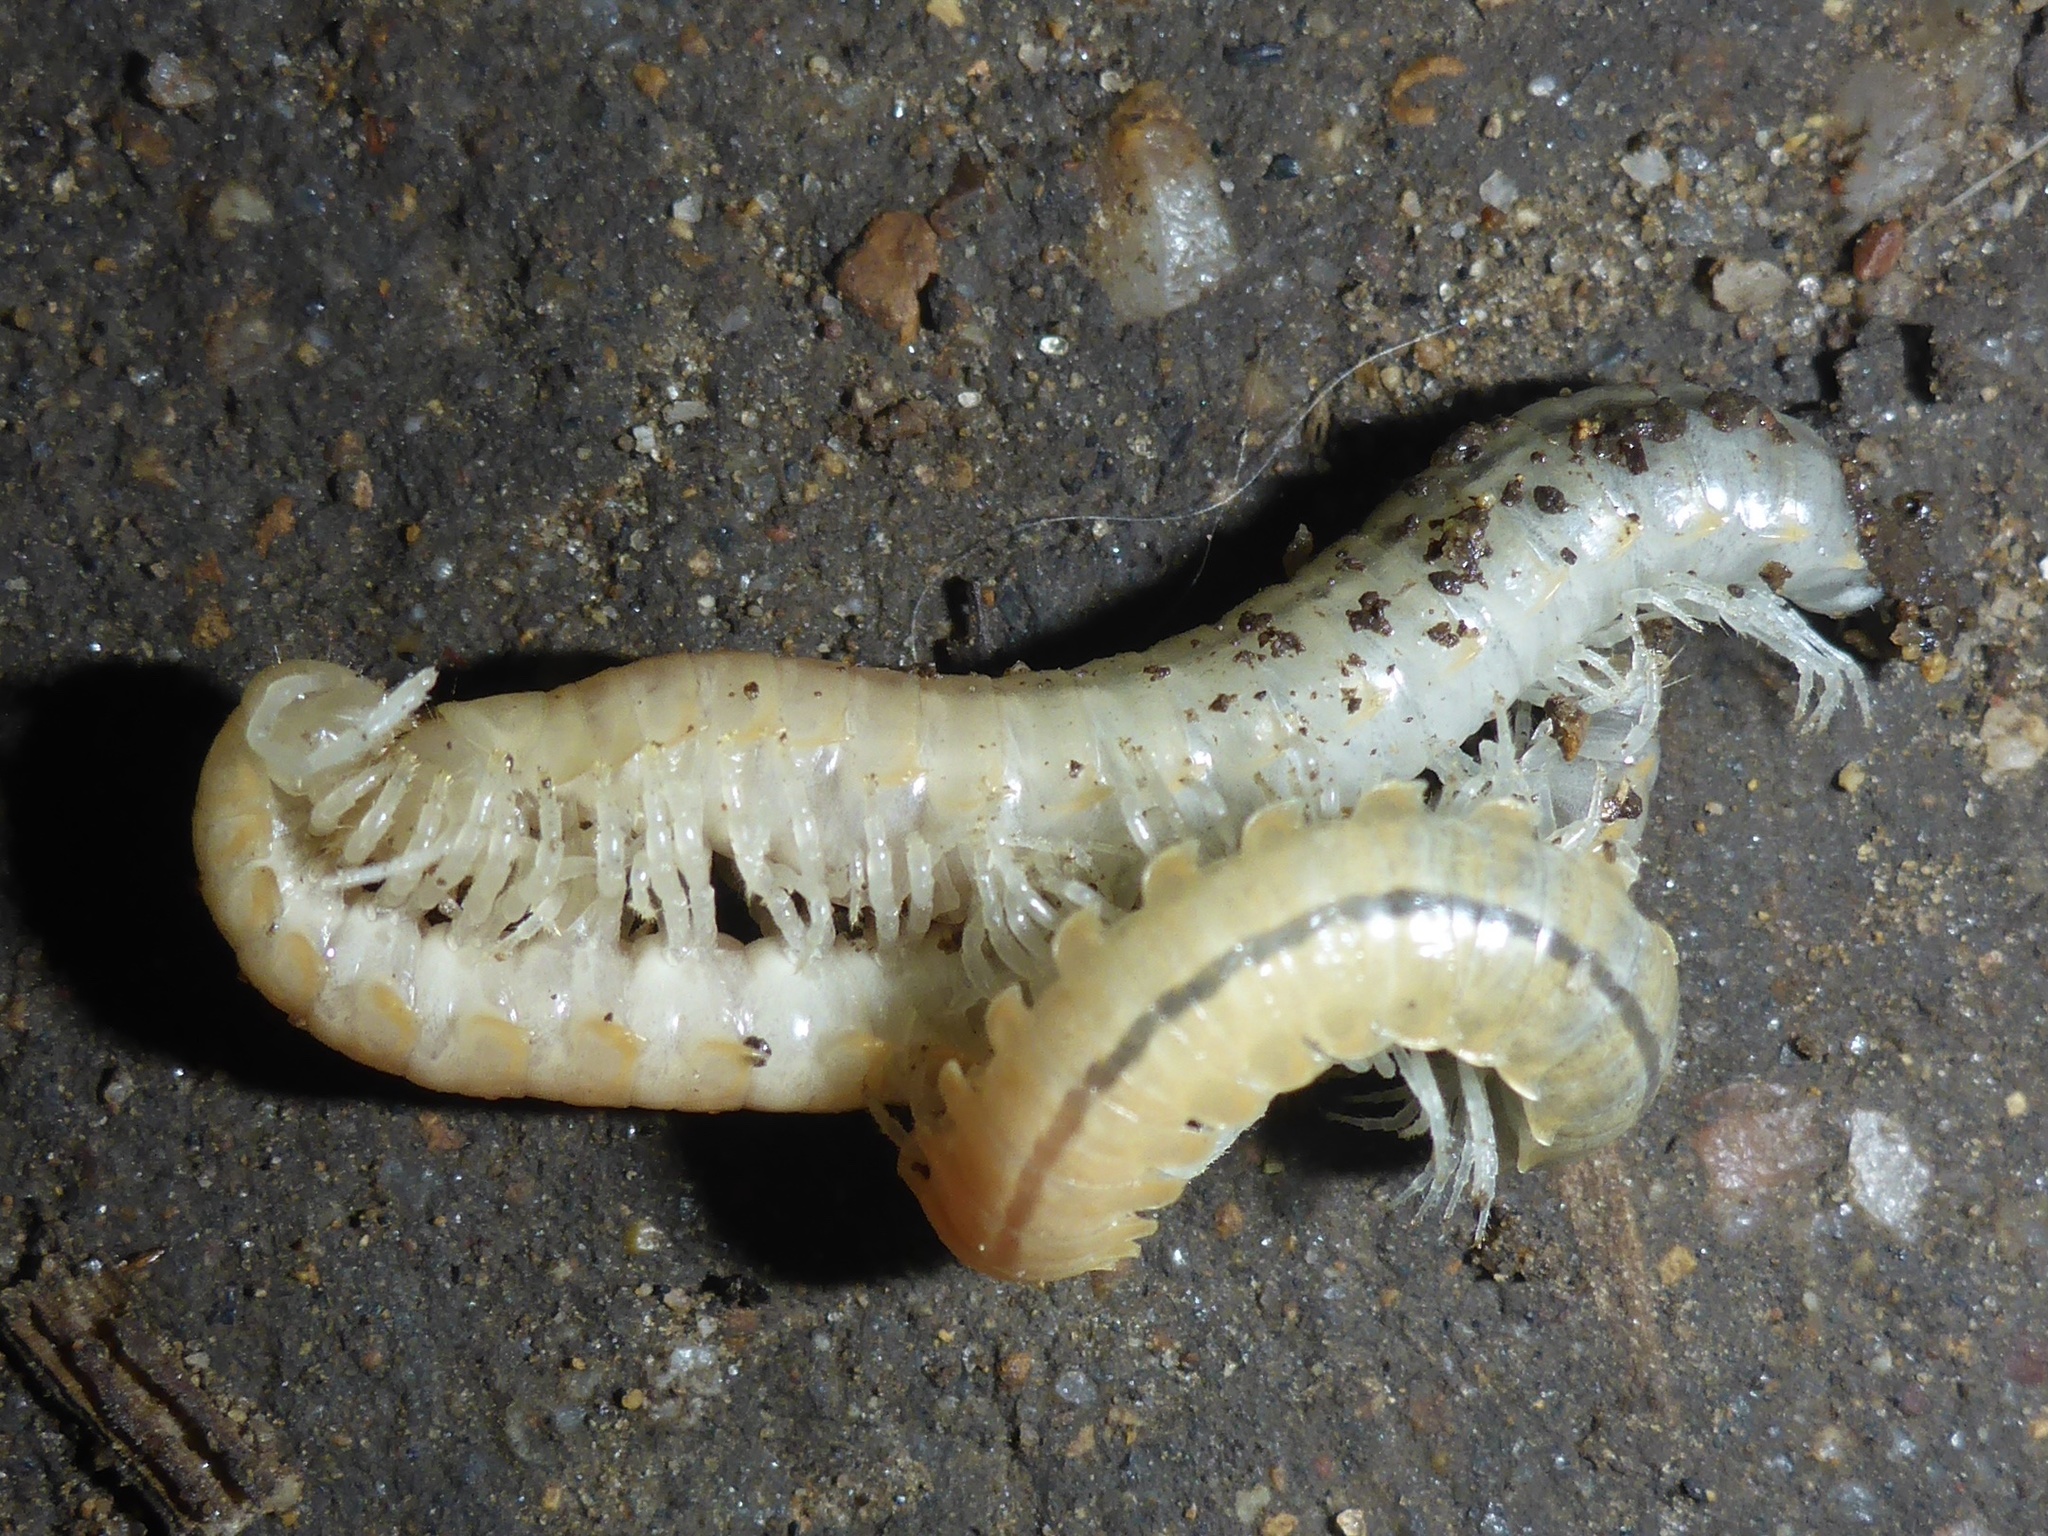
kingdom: Animalia
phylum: Arthropoda
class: Diplopoda
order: Polydesmida
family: Xystodesmidae
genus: Xystocheir
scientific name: Xystocheir dissecta
